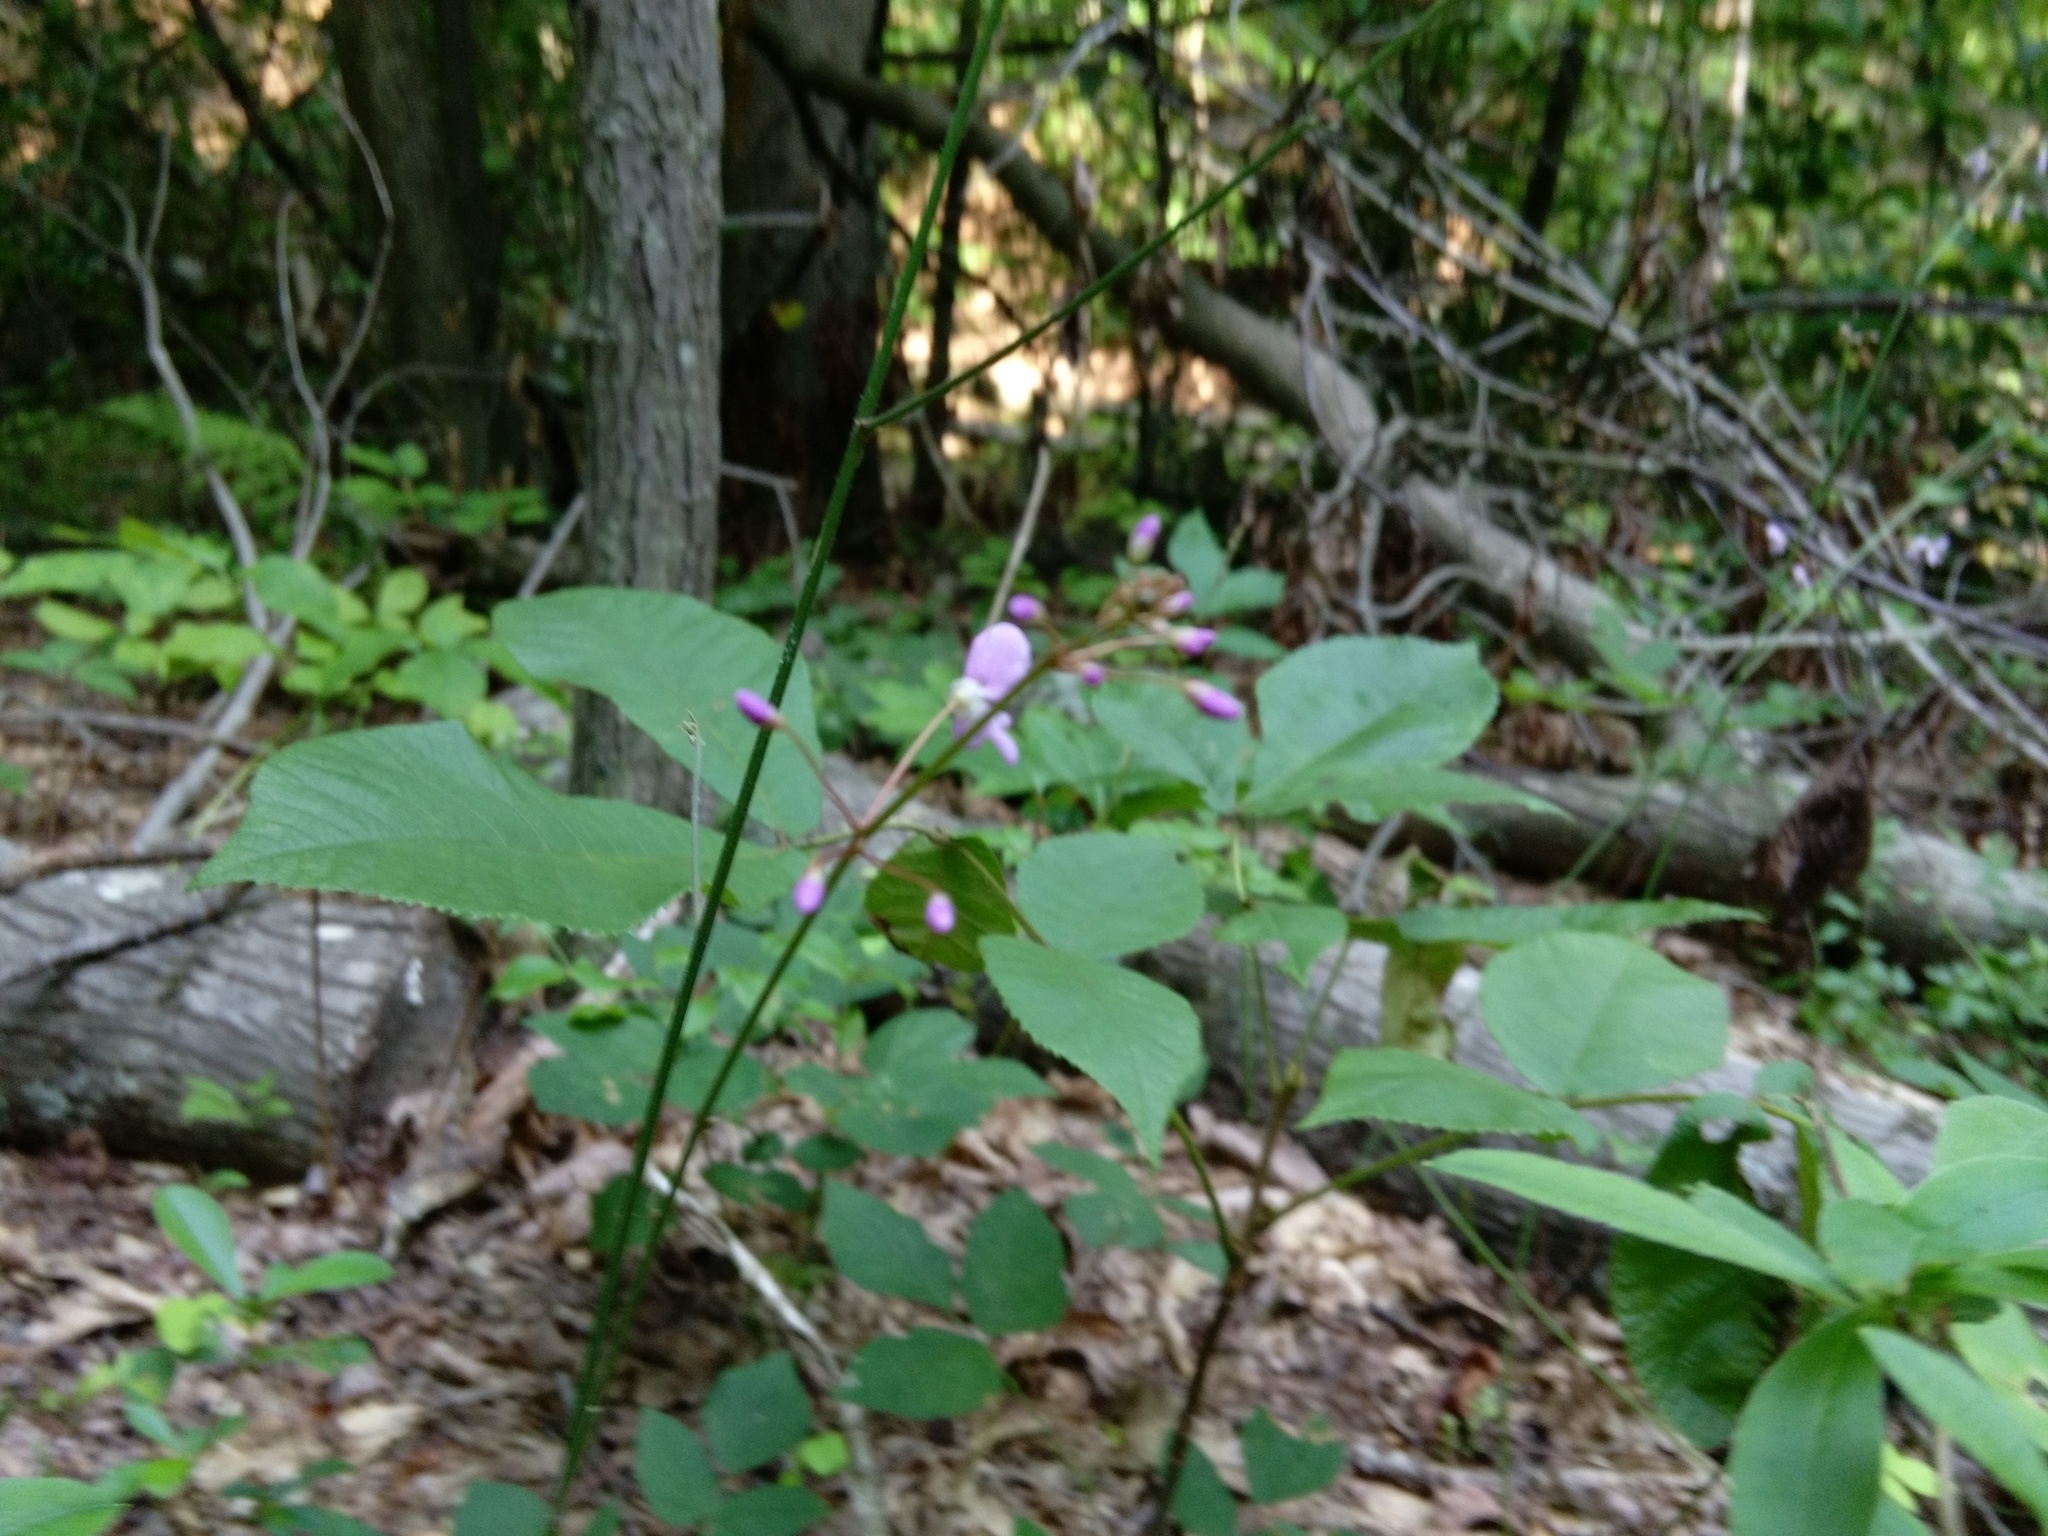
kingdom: Plantae
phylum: Tracheophyta
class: Magnoliopsida
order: Fabales
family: Fabaceae
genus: Hylodesmum
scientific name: Hylodesmum nudiflorum
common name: Bare-stemmed tick-trefoil
